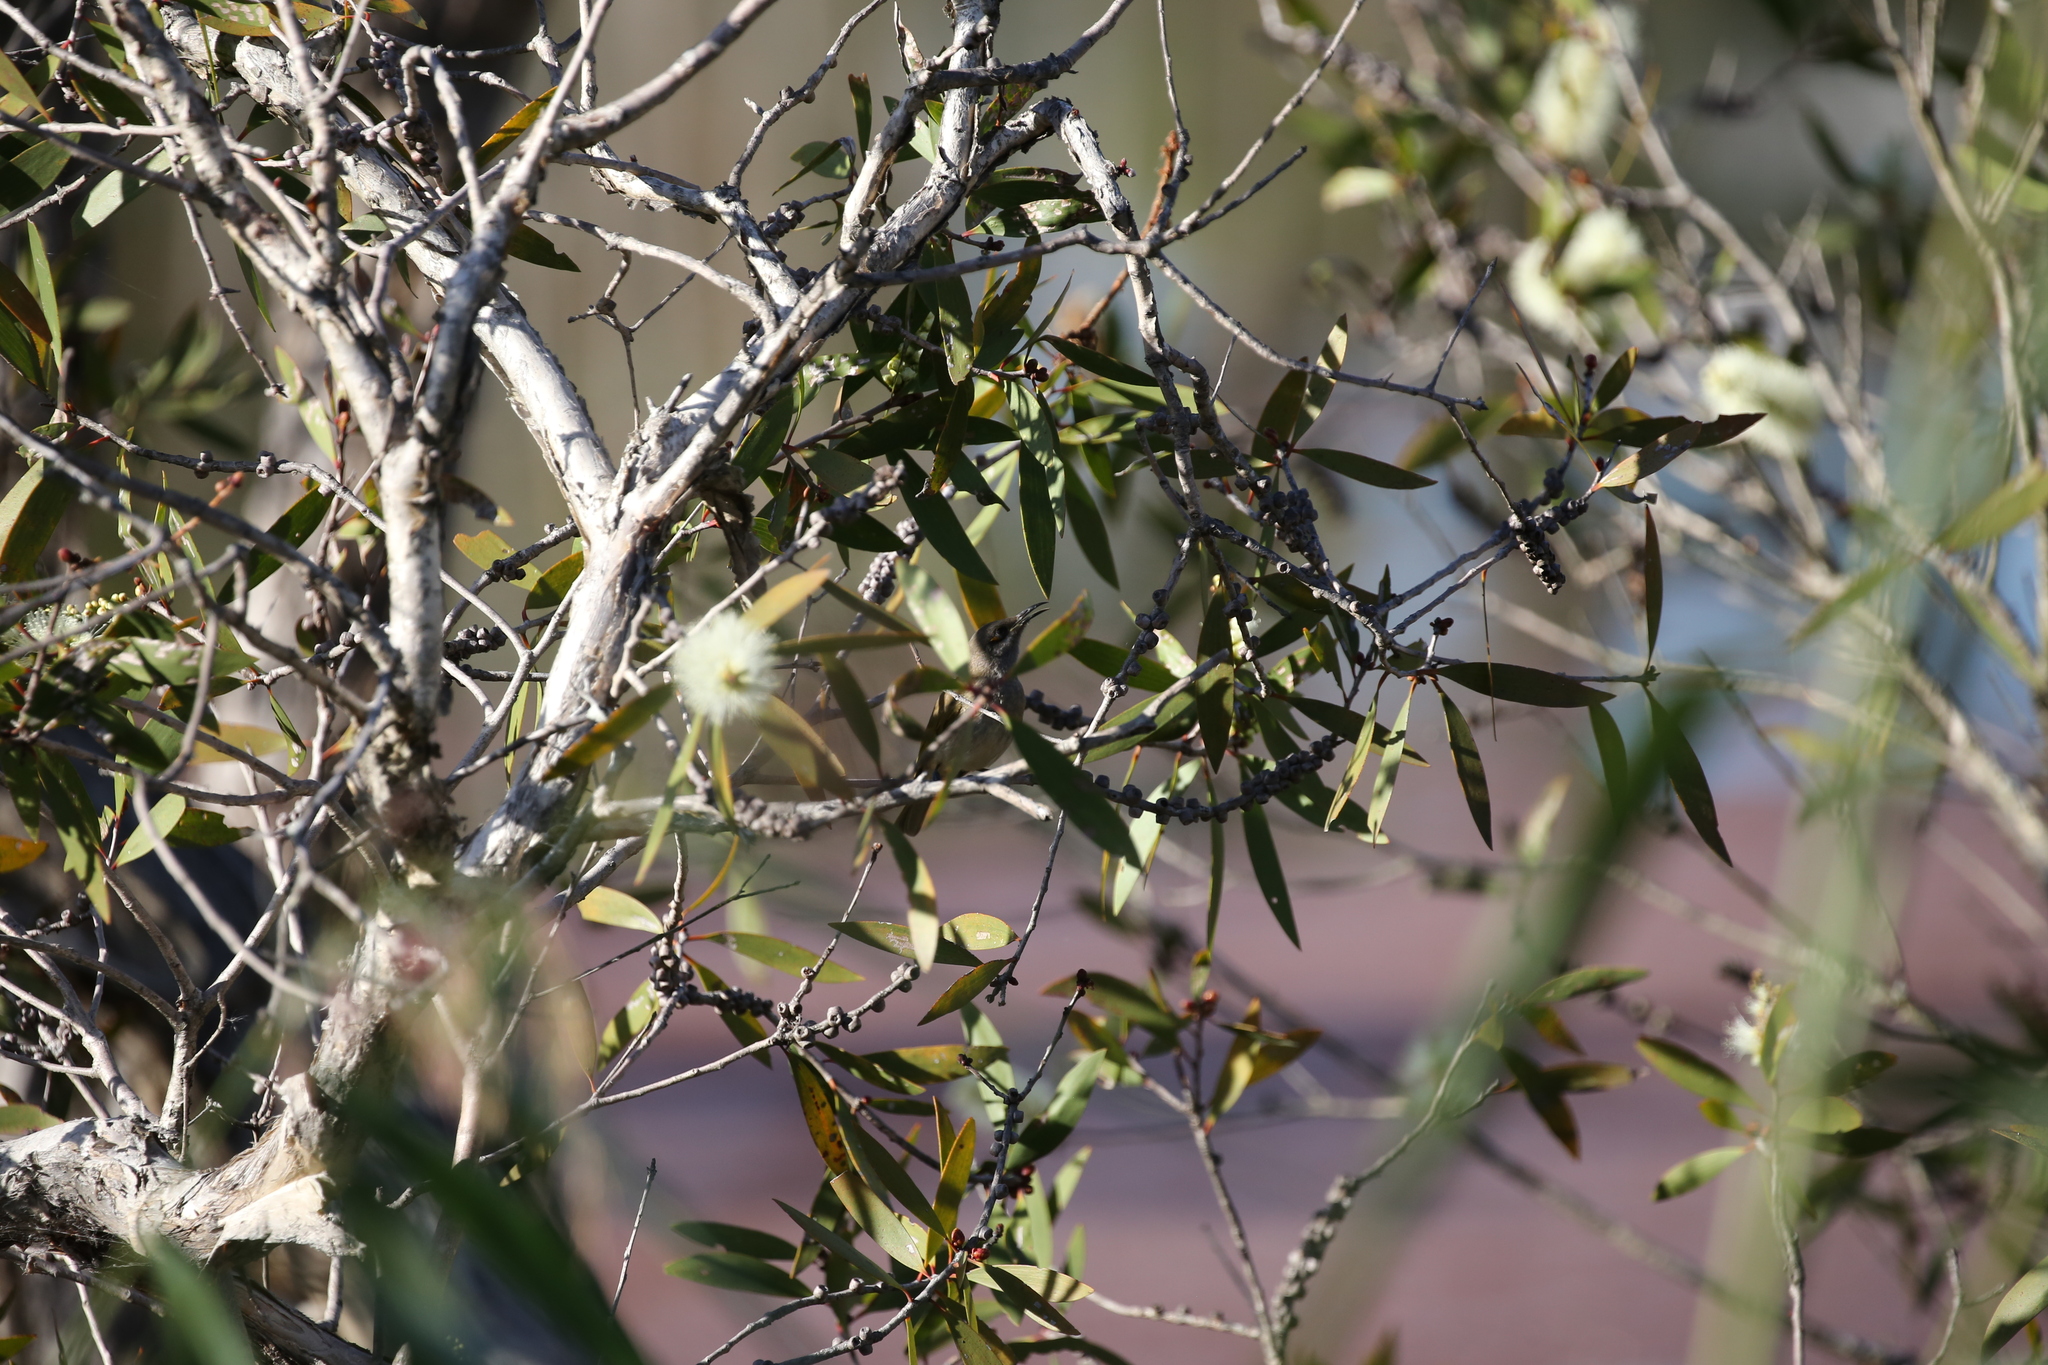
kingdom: Animalia
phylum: Chordata
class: Aves
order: Passeriformes
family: Meliphagidae
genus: Lichmera
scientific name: Lichmera indistincta
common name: Brown honeyeater
